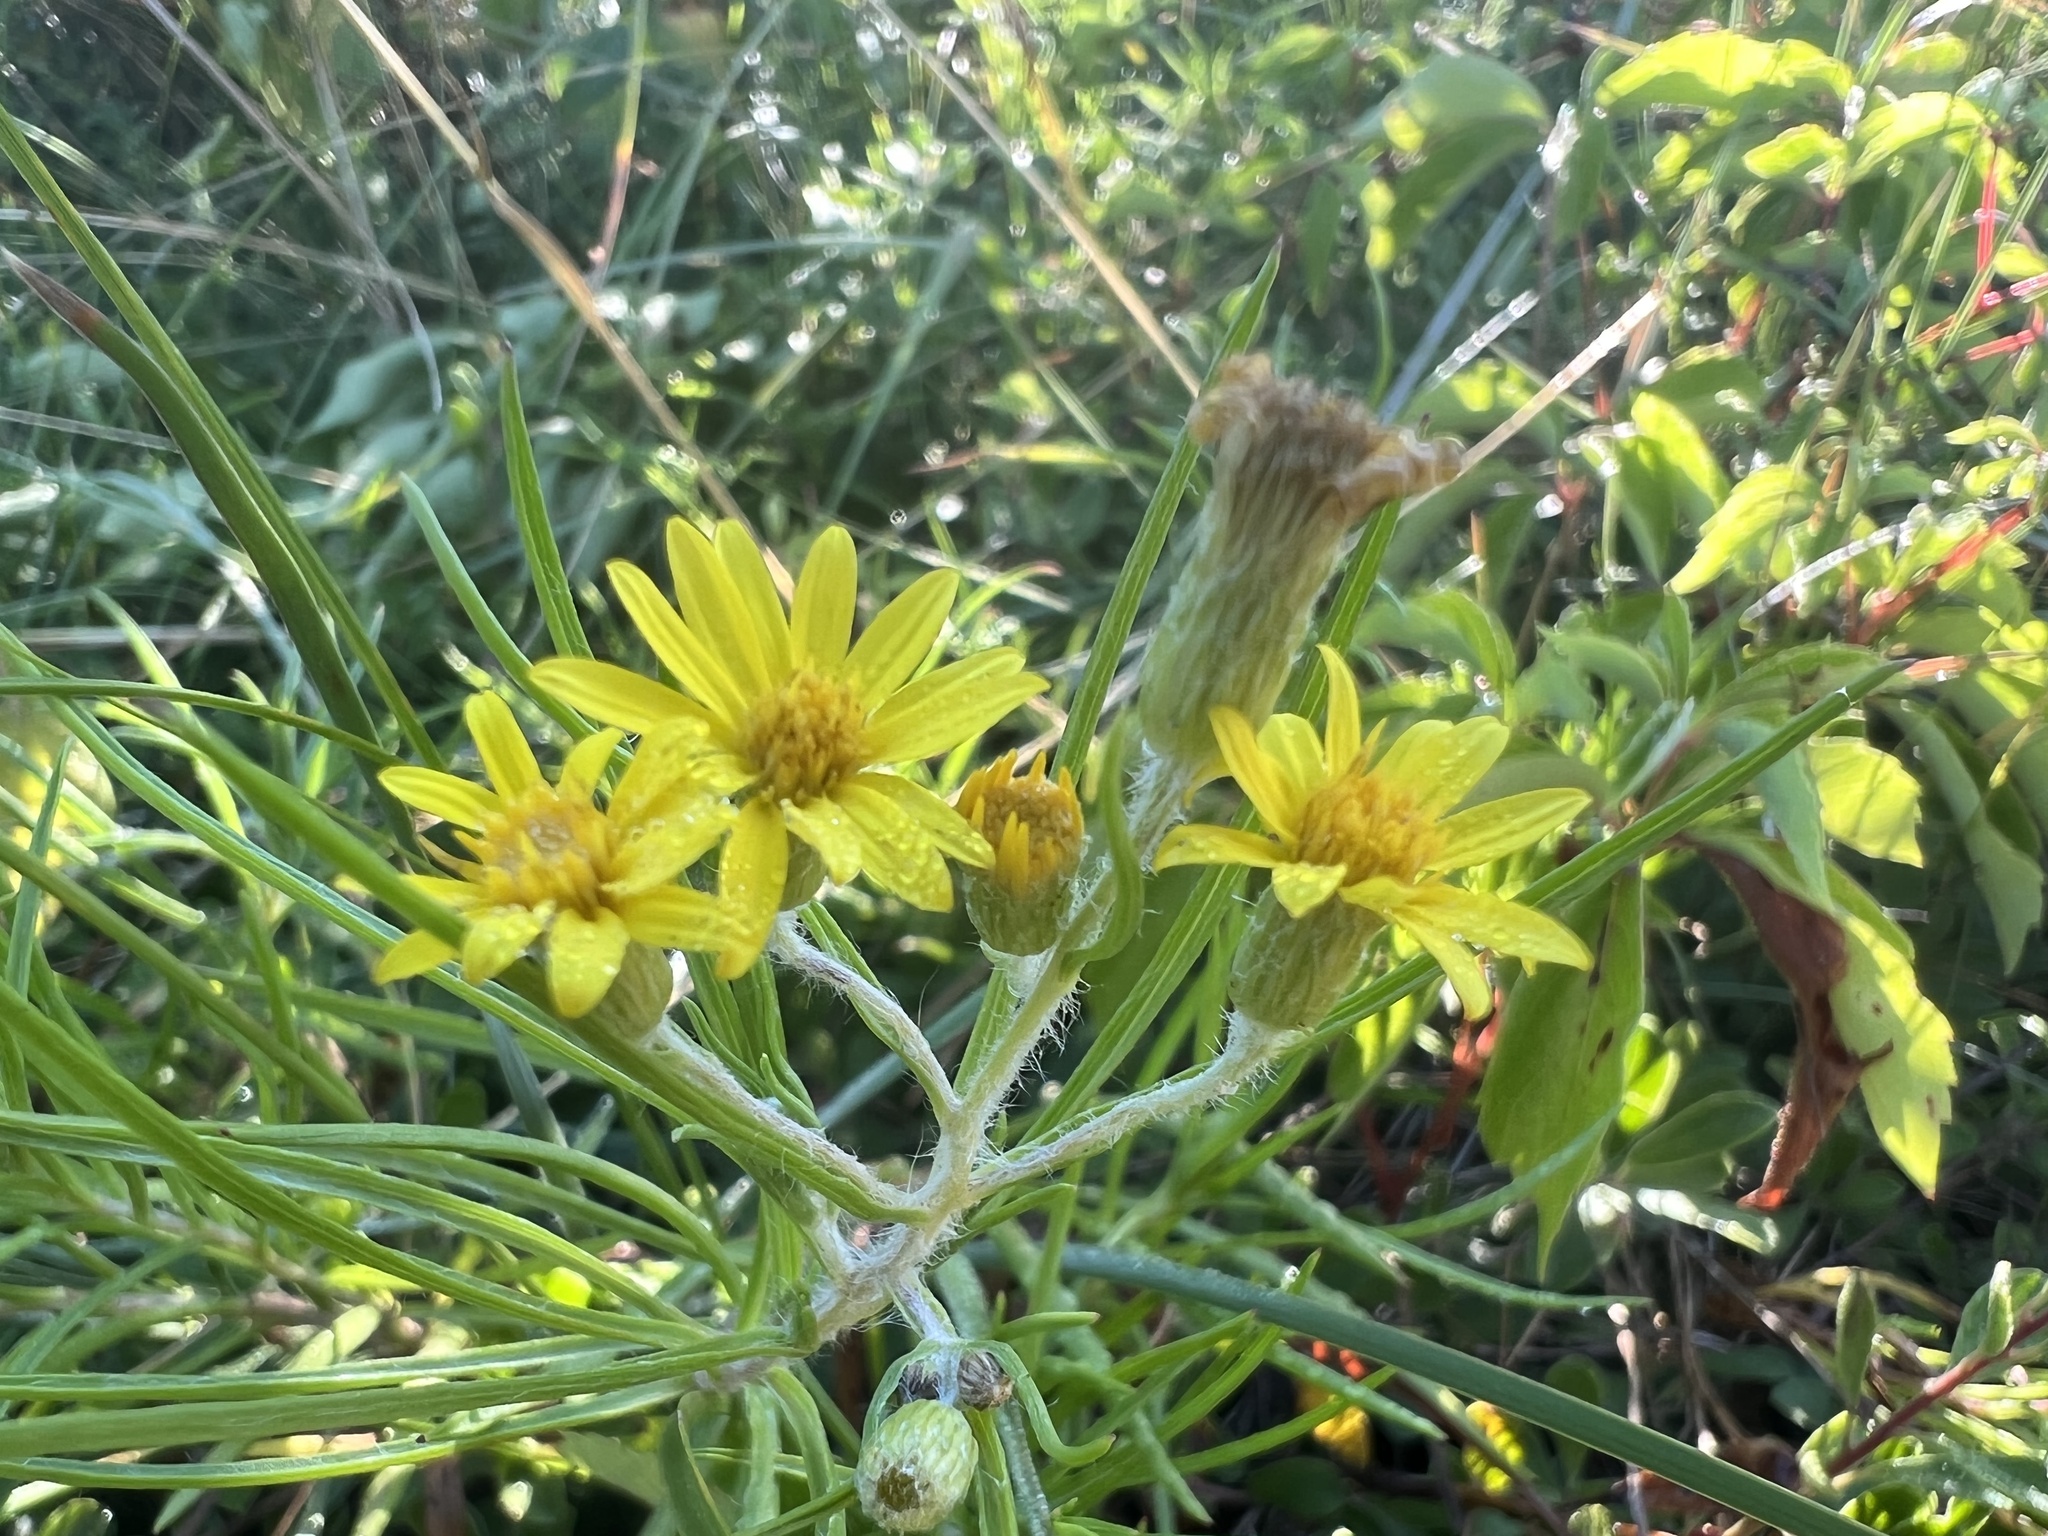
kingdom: Plantae
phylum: Tracheophyta
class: Magnoliopsida
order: Asterales
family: Asteraceae
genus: Pityopsis
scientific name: Pityopsis falcata
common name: Sickle-leaved goldenaster
